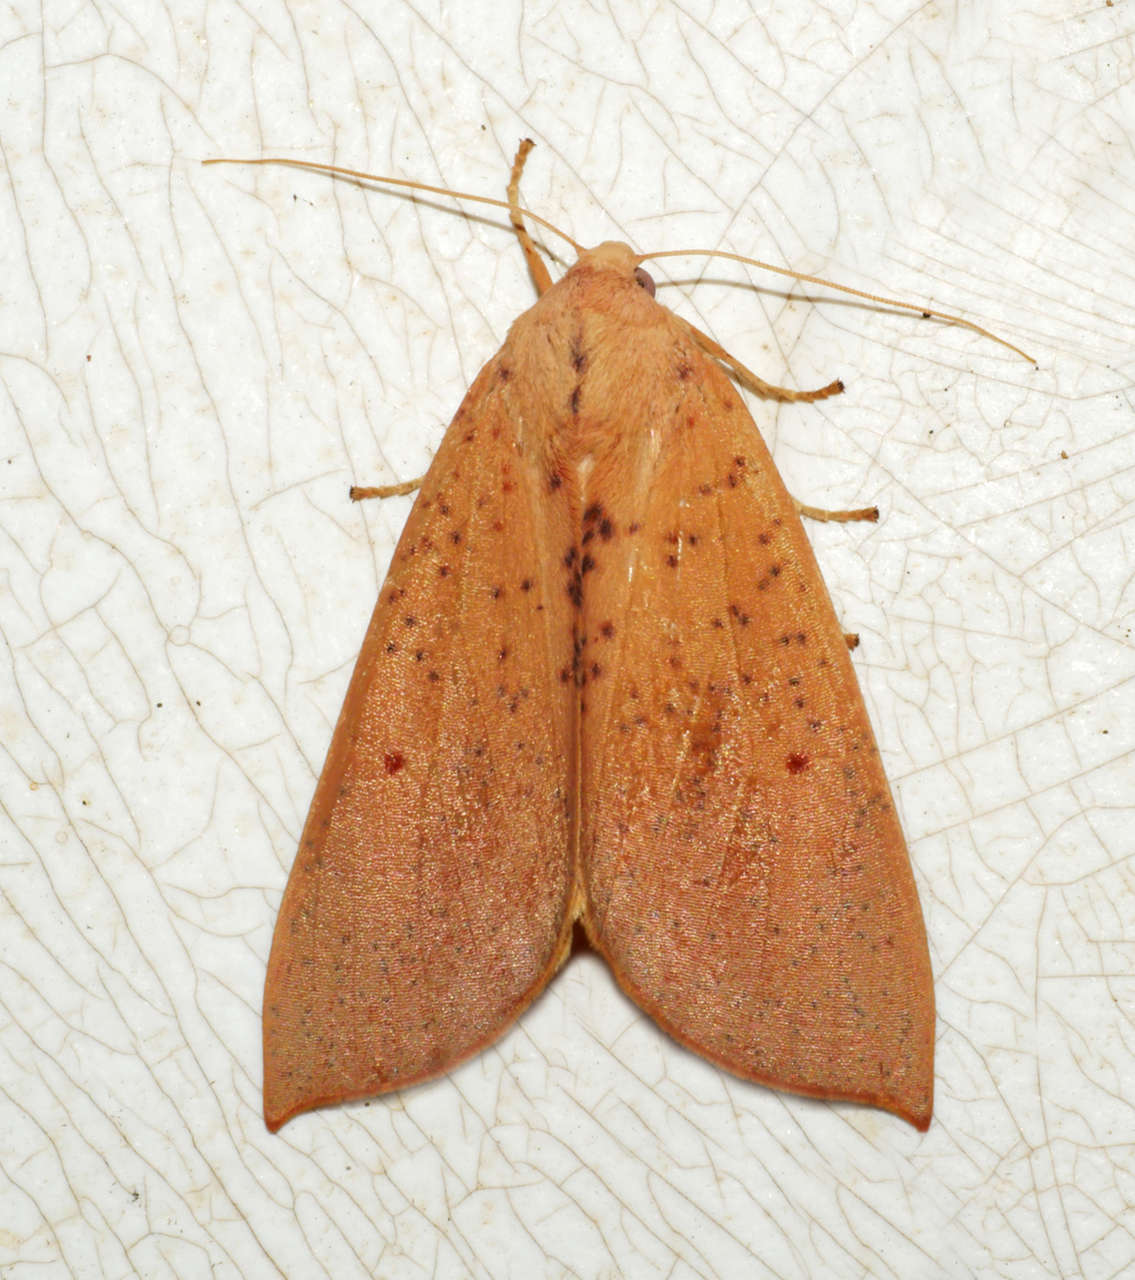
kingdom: Animalia
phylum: Arthropoda
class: Insecta
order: Lepidoptera
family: Geometridae
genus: Plesanemma
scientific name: Plesanemma fucata
